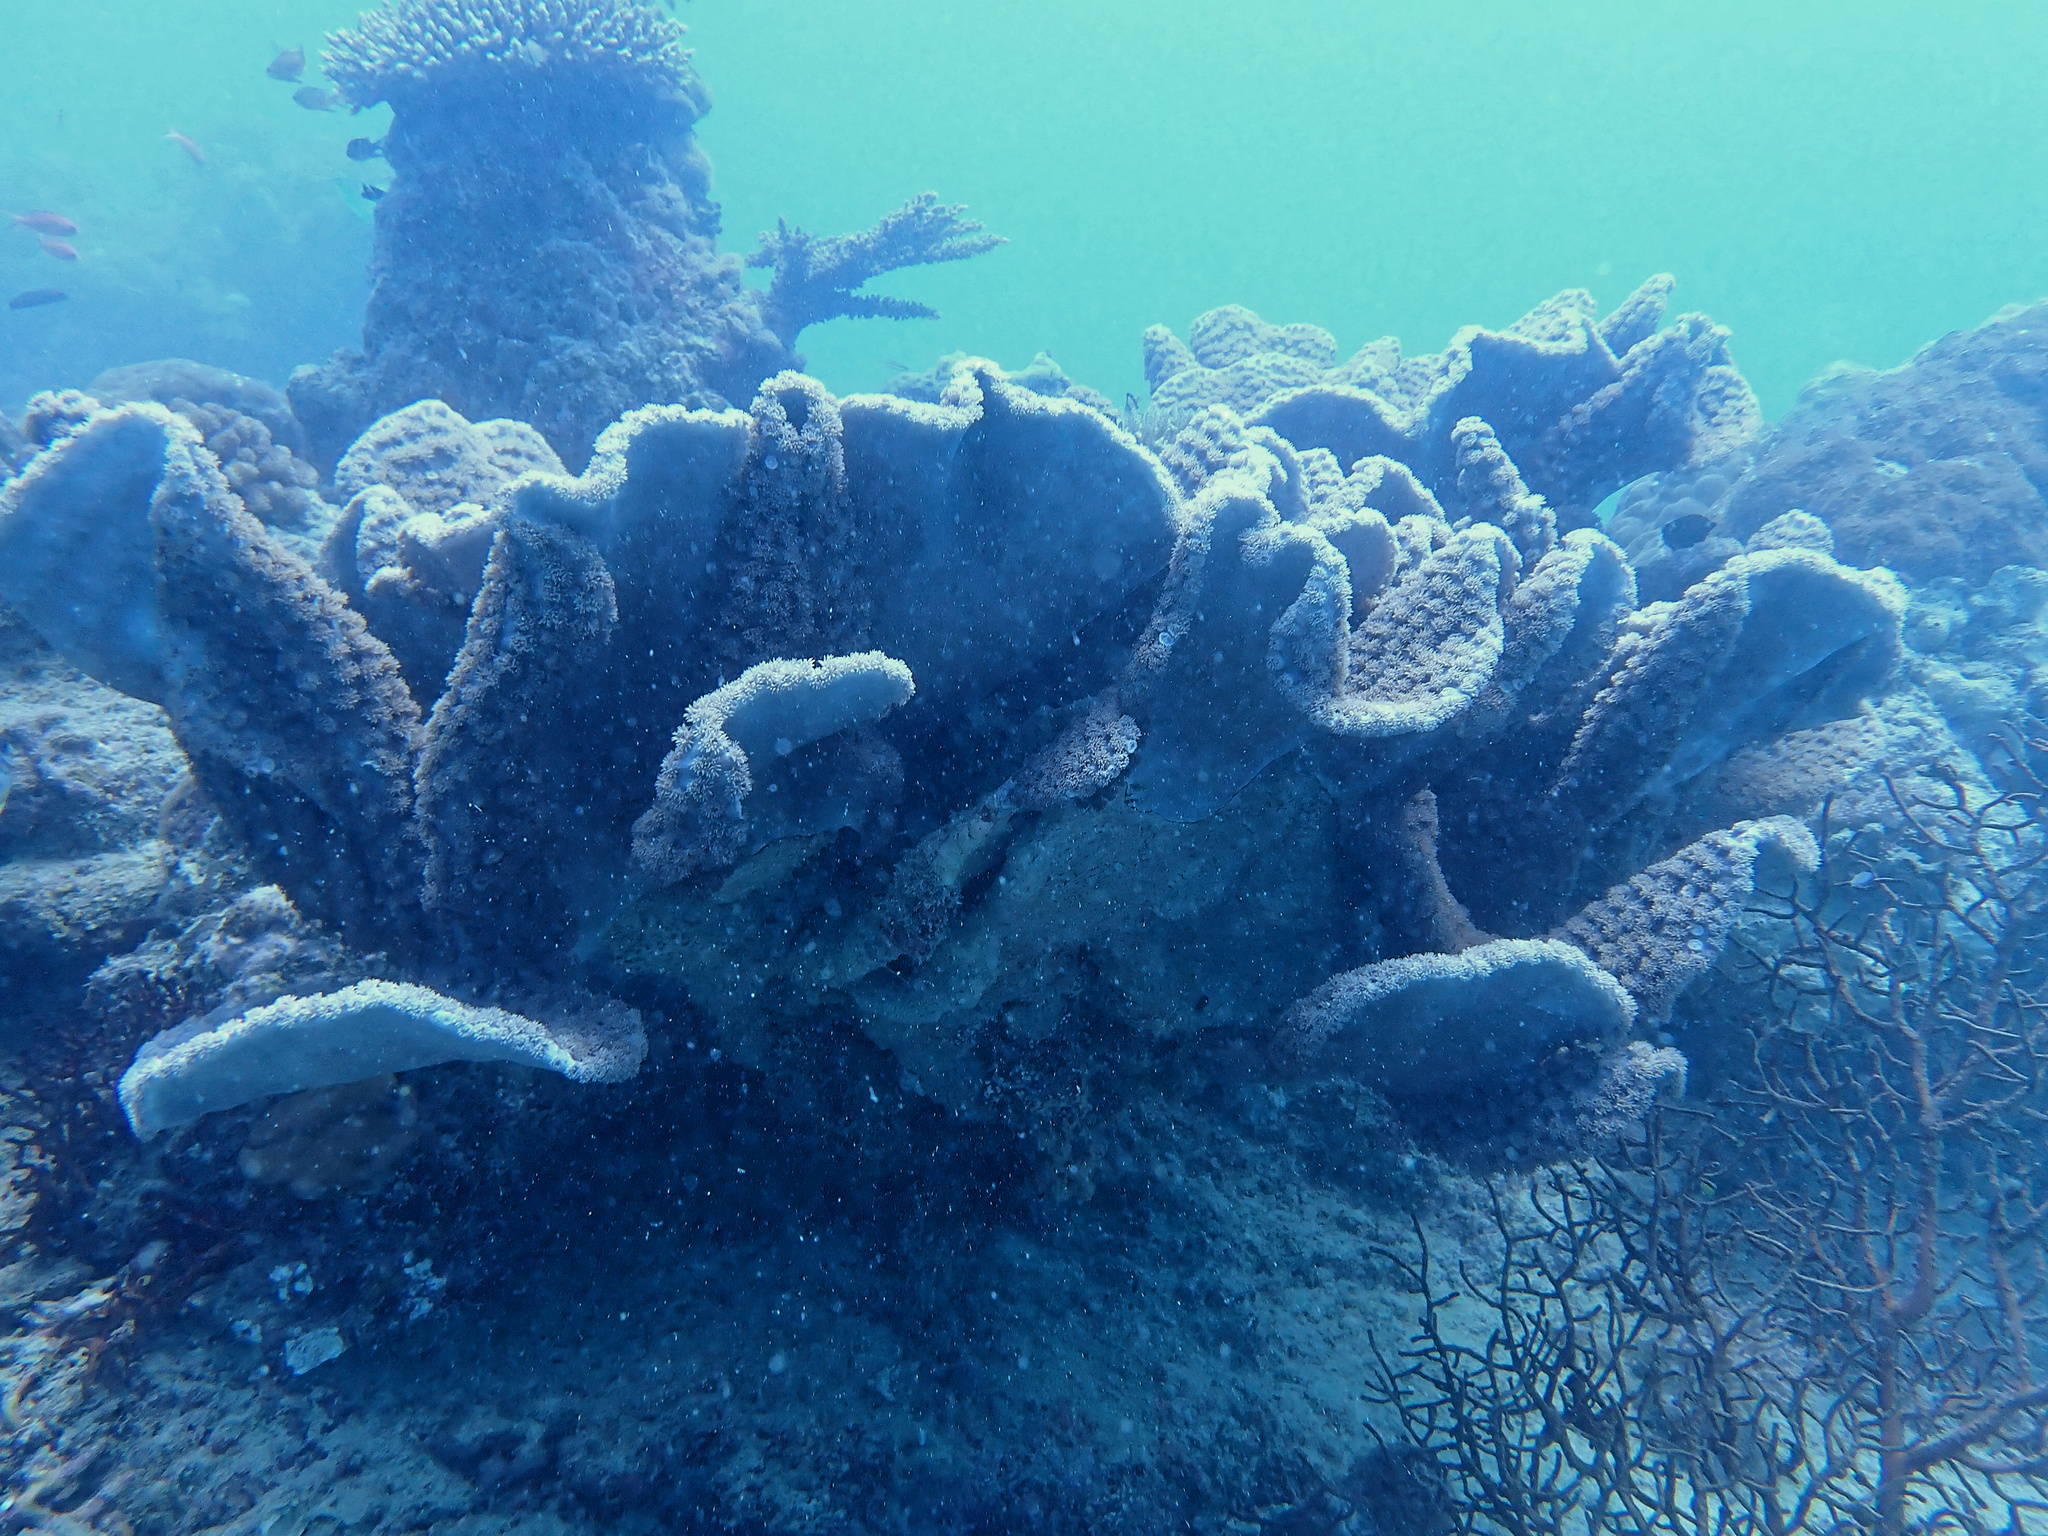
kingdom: Animalia
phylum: Cnidaria
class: Anthozoa
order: Scleractinia
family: Dendrophylliidae
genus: Duncanopsammia
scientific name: Duncanopsammia peltata
